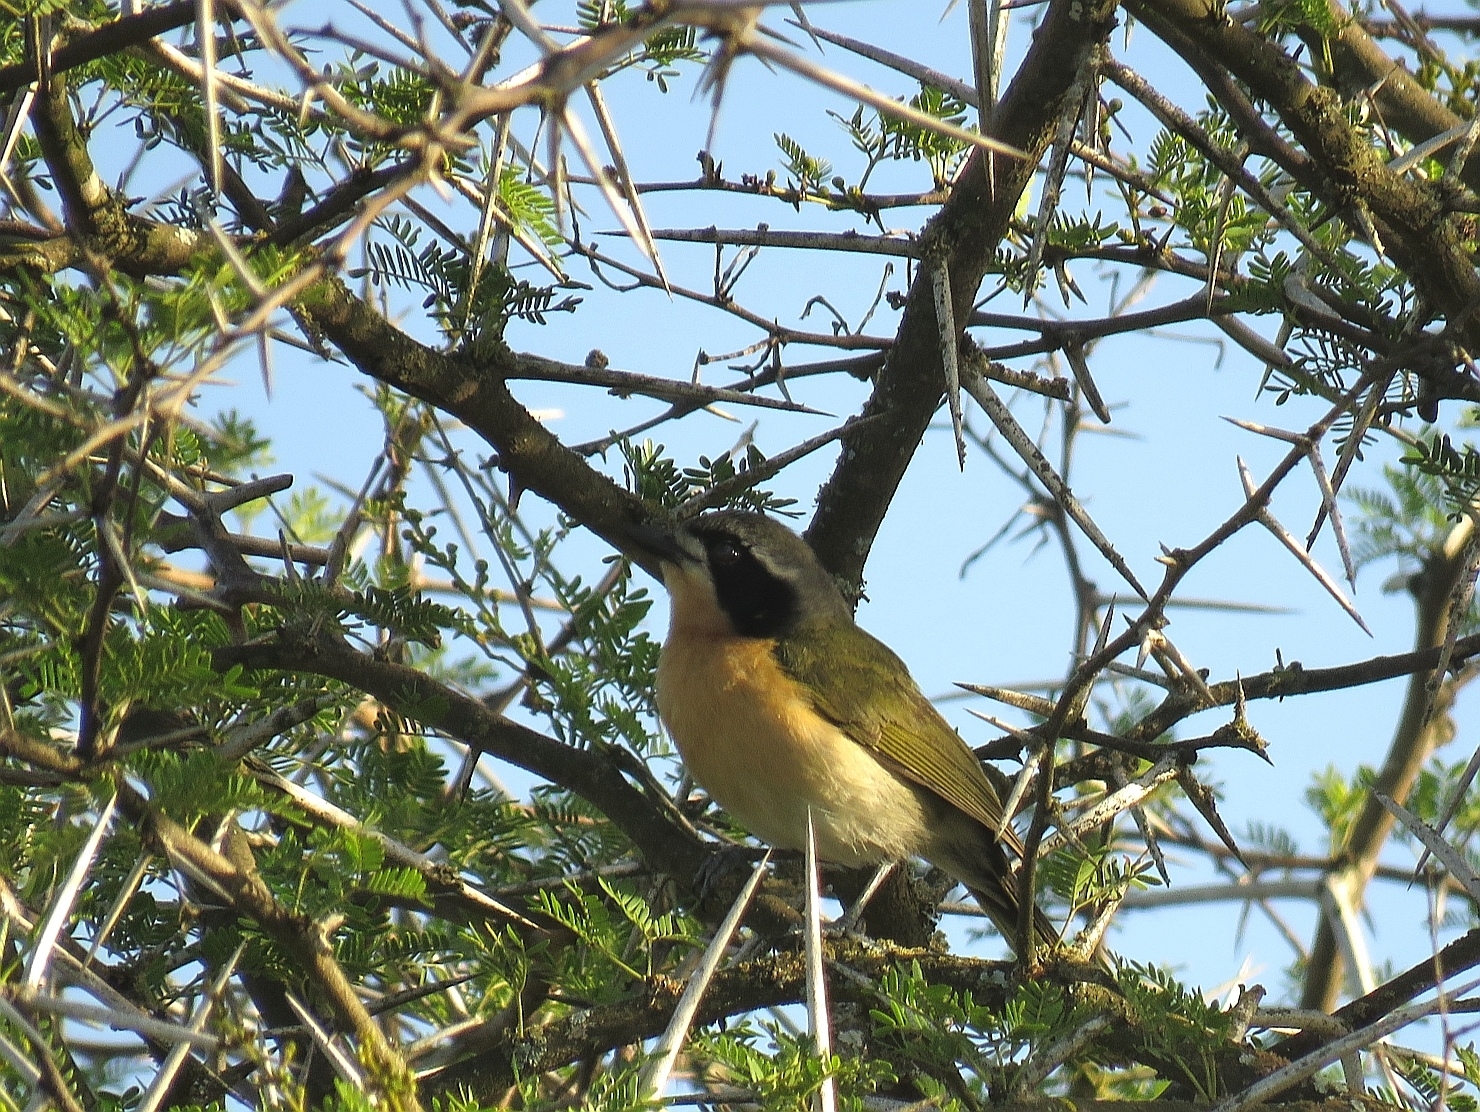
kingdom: Animalia
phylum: Chordata
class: Aves
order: Passeriformes
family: Malaconotidae
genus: Chlorophoneus
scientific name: Chlorophoneus olivaceus
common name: Olive bushshrike
